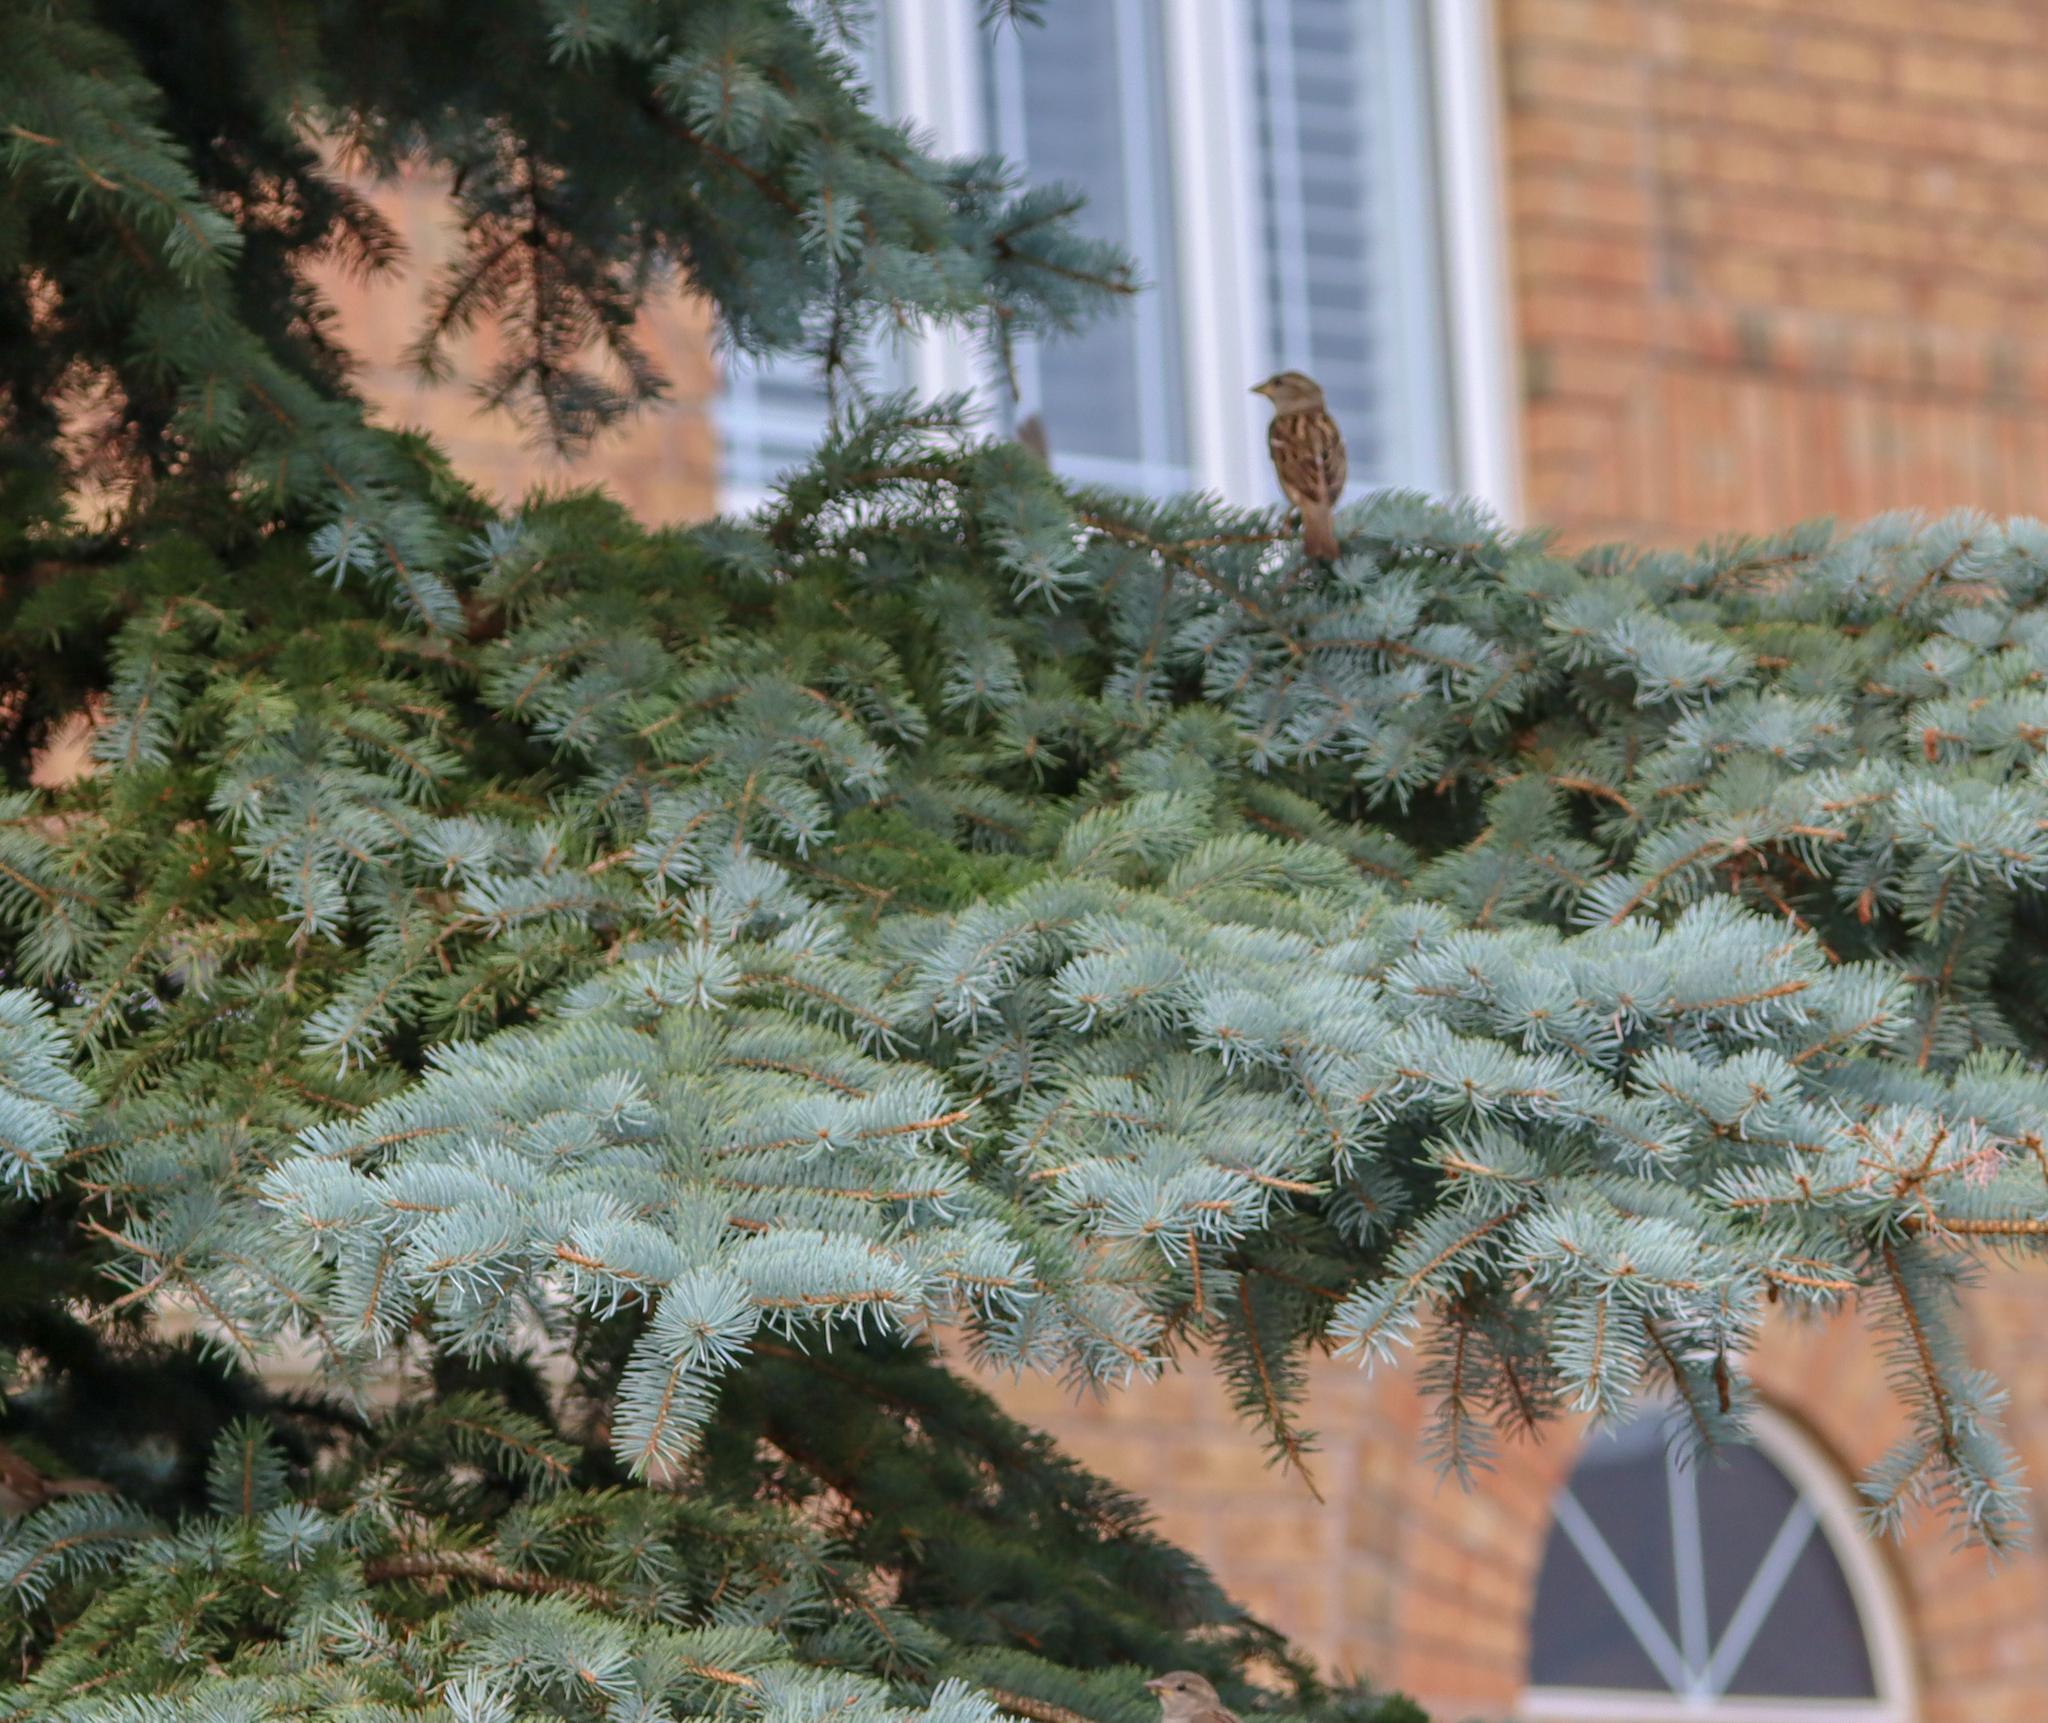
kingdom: Animalia
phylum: Chordata
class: Aves
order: Passeriformes
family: Passeridae
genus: Passer
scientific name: Passer domesticus
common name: House sparrow
